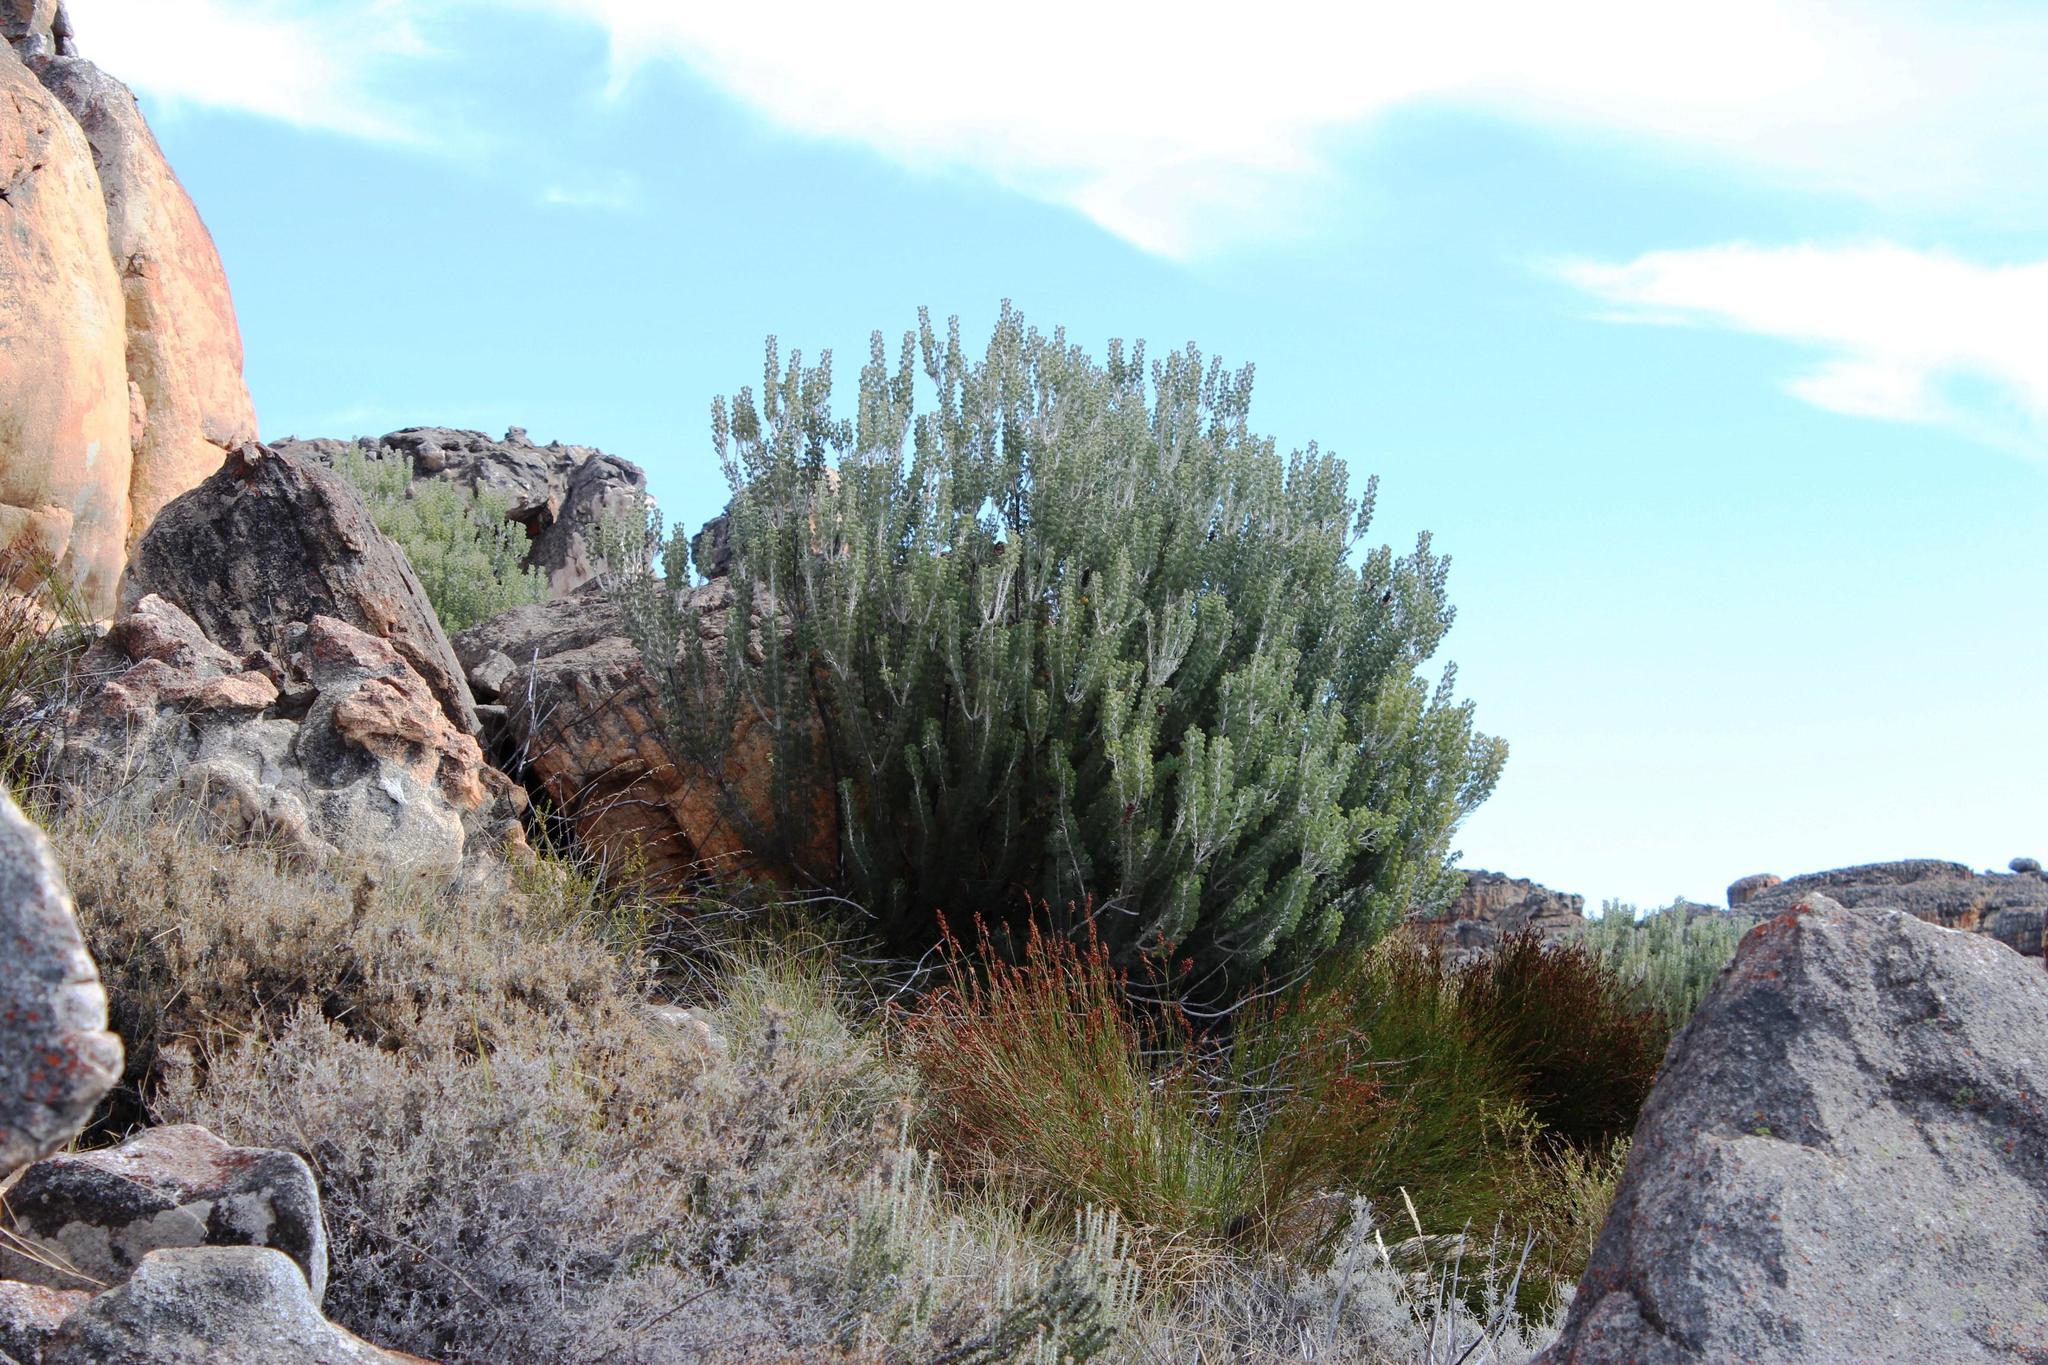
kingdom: Plantae
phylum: Tracheophyta
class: Magnoliopsida
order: Proteales
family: Proteaceae
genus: Paranomus
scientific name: Paranomus tomentosus
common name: Hairy-leaf tree sceptre
